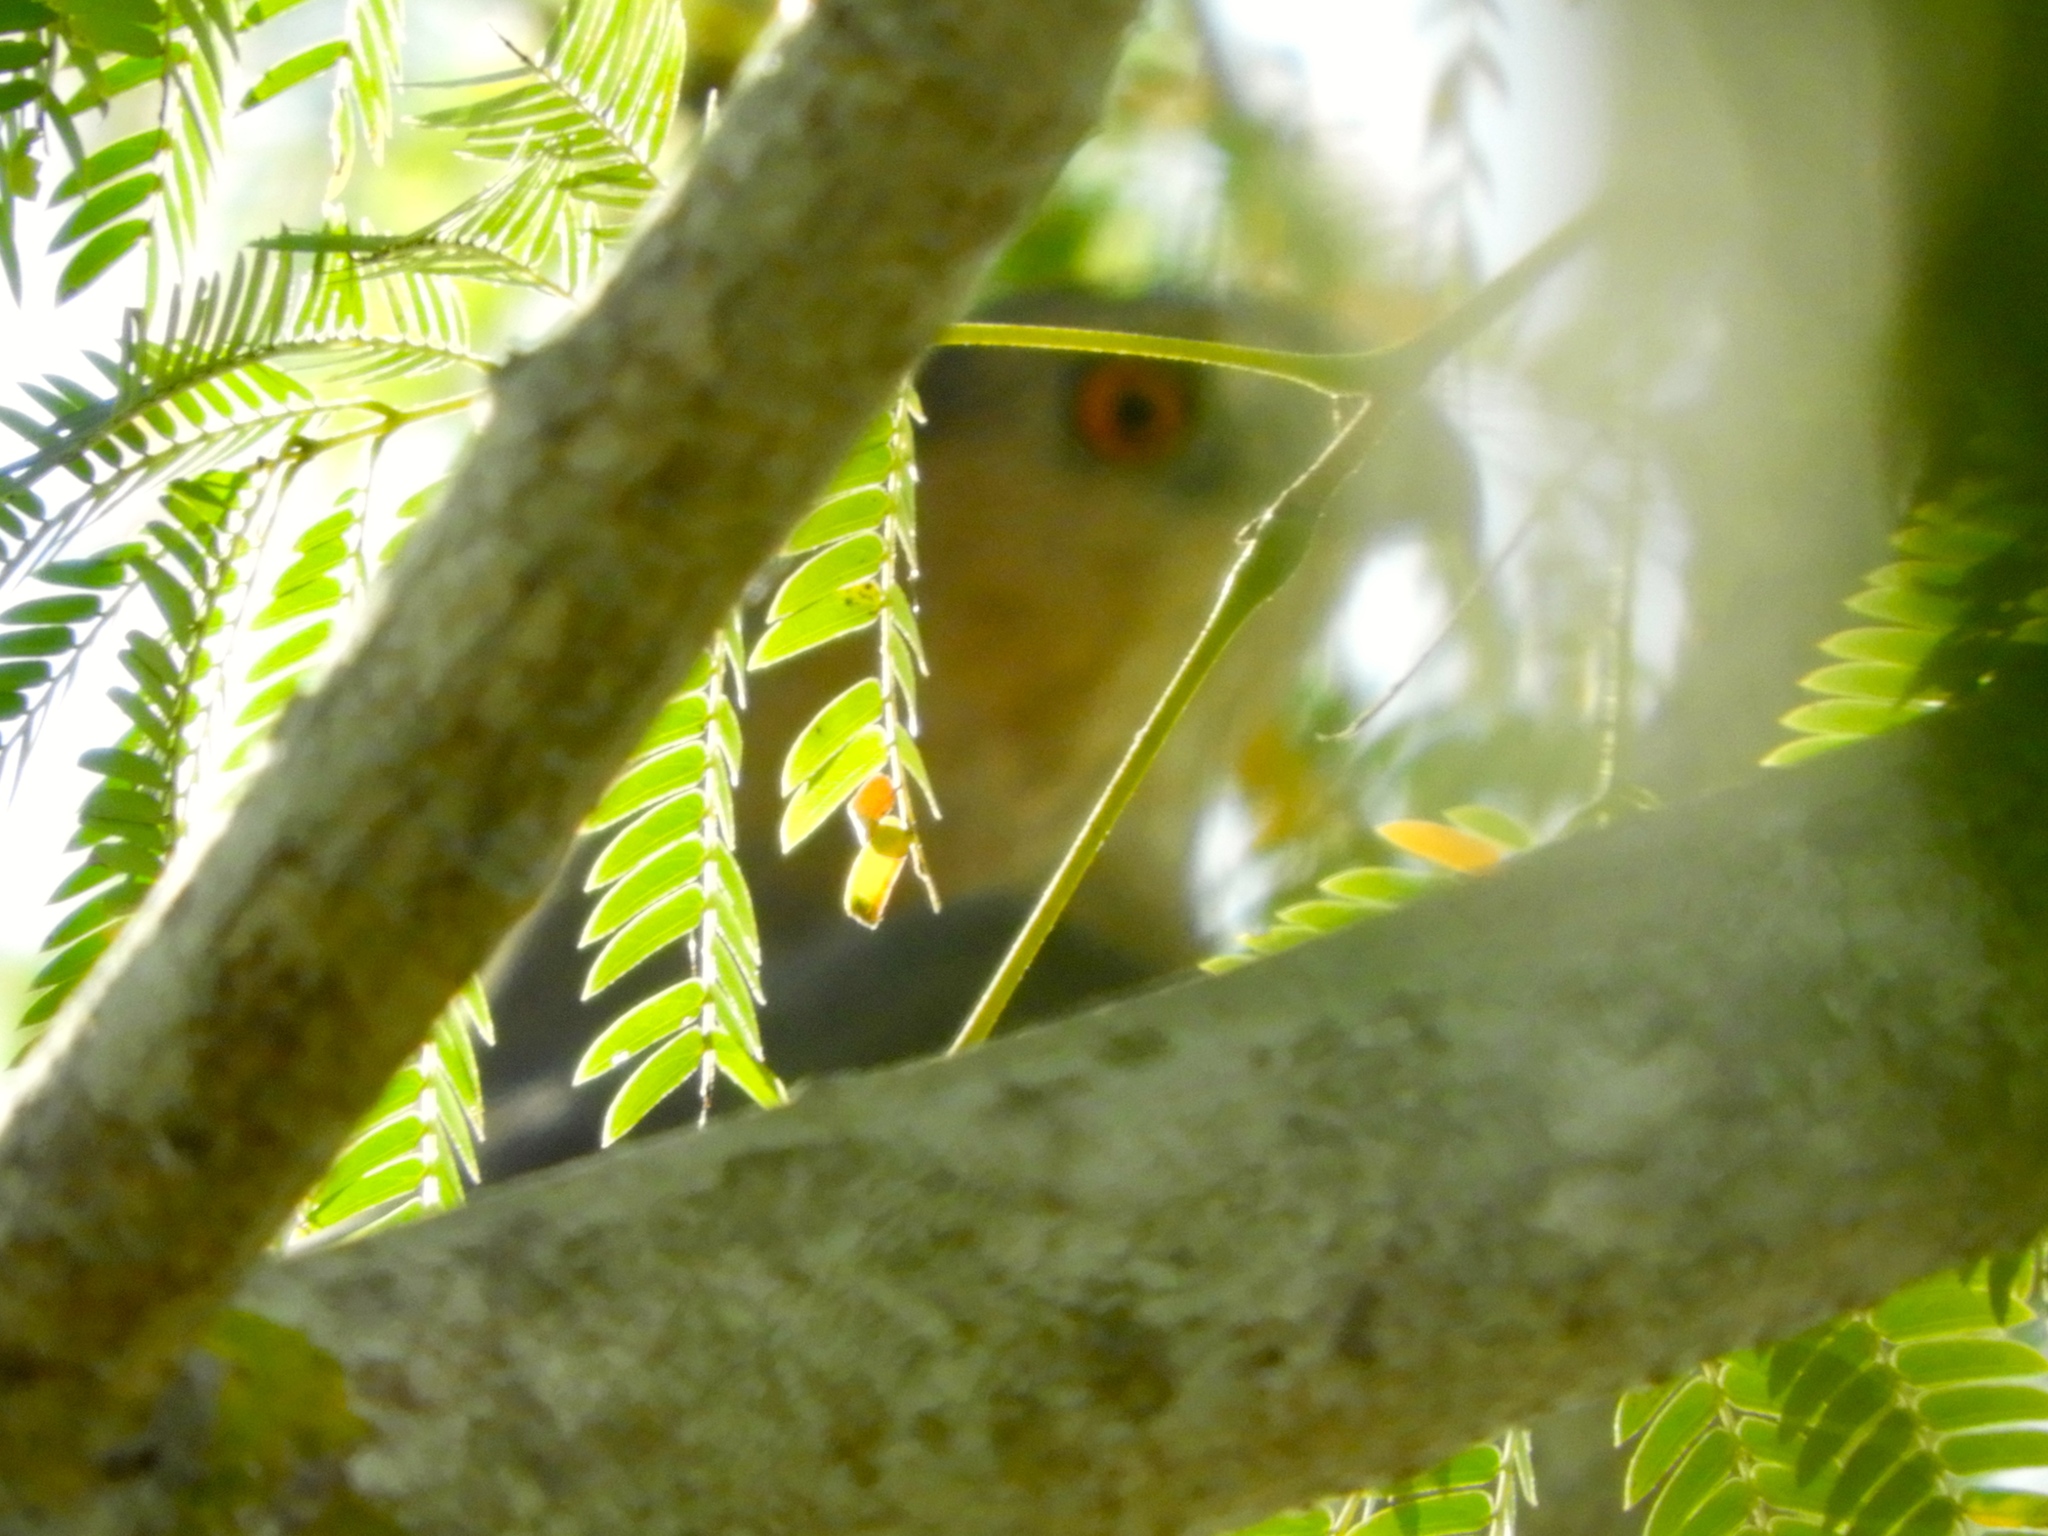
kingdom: Animalia
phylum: Chordata
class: Aves
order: Accipitriformes
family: Accipitridae
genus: Accipiter
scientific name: Accipiter cooperii
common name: Cooper's hawk
